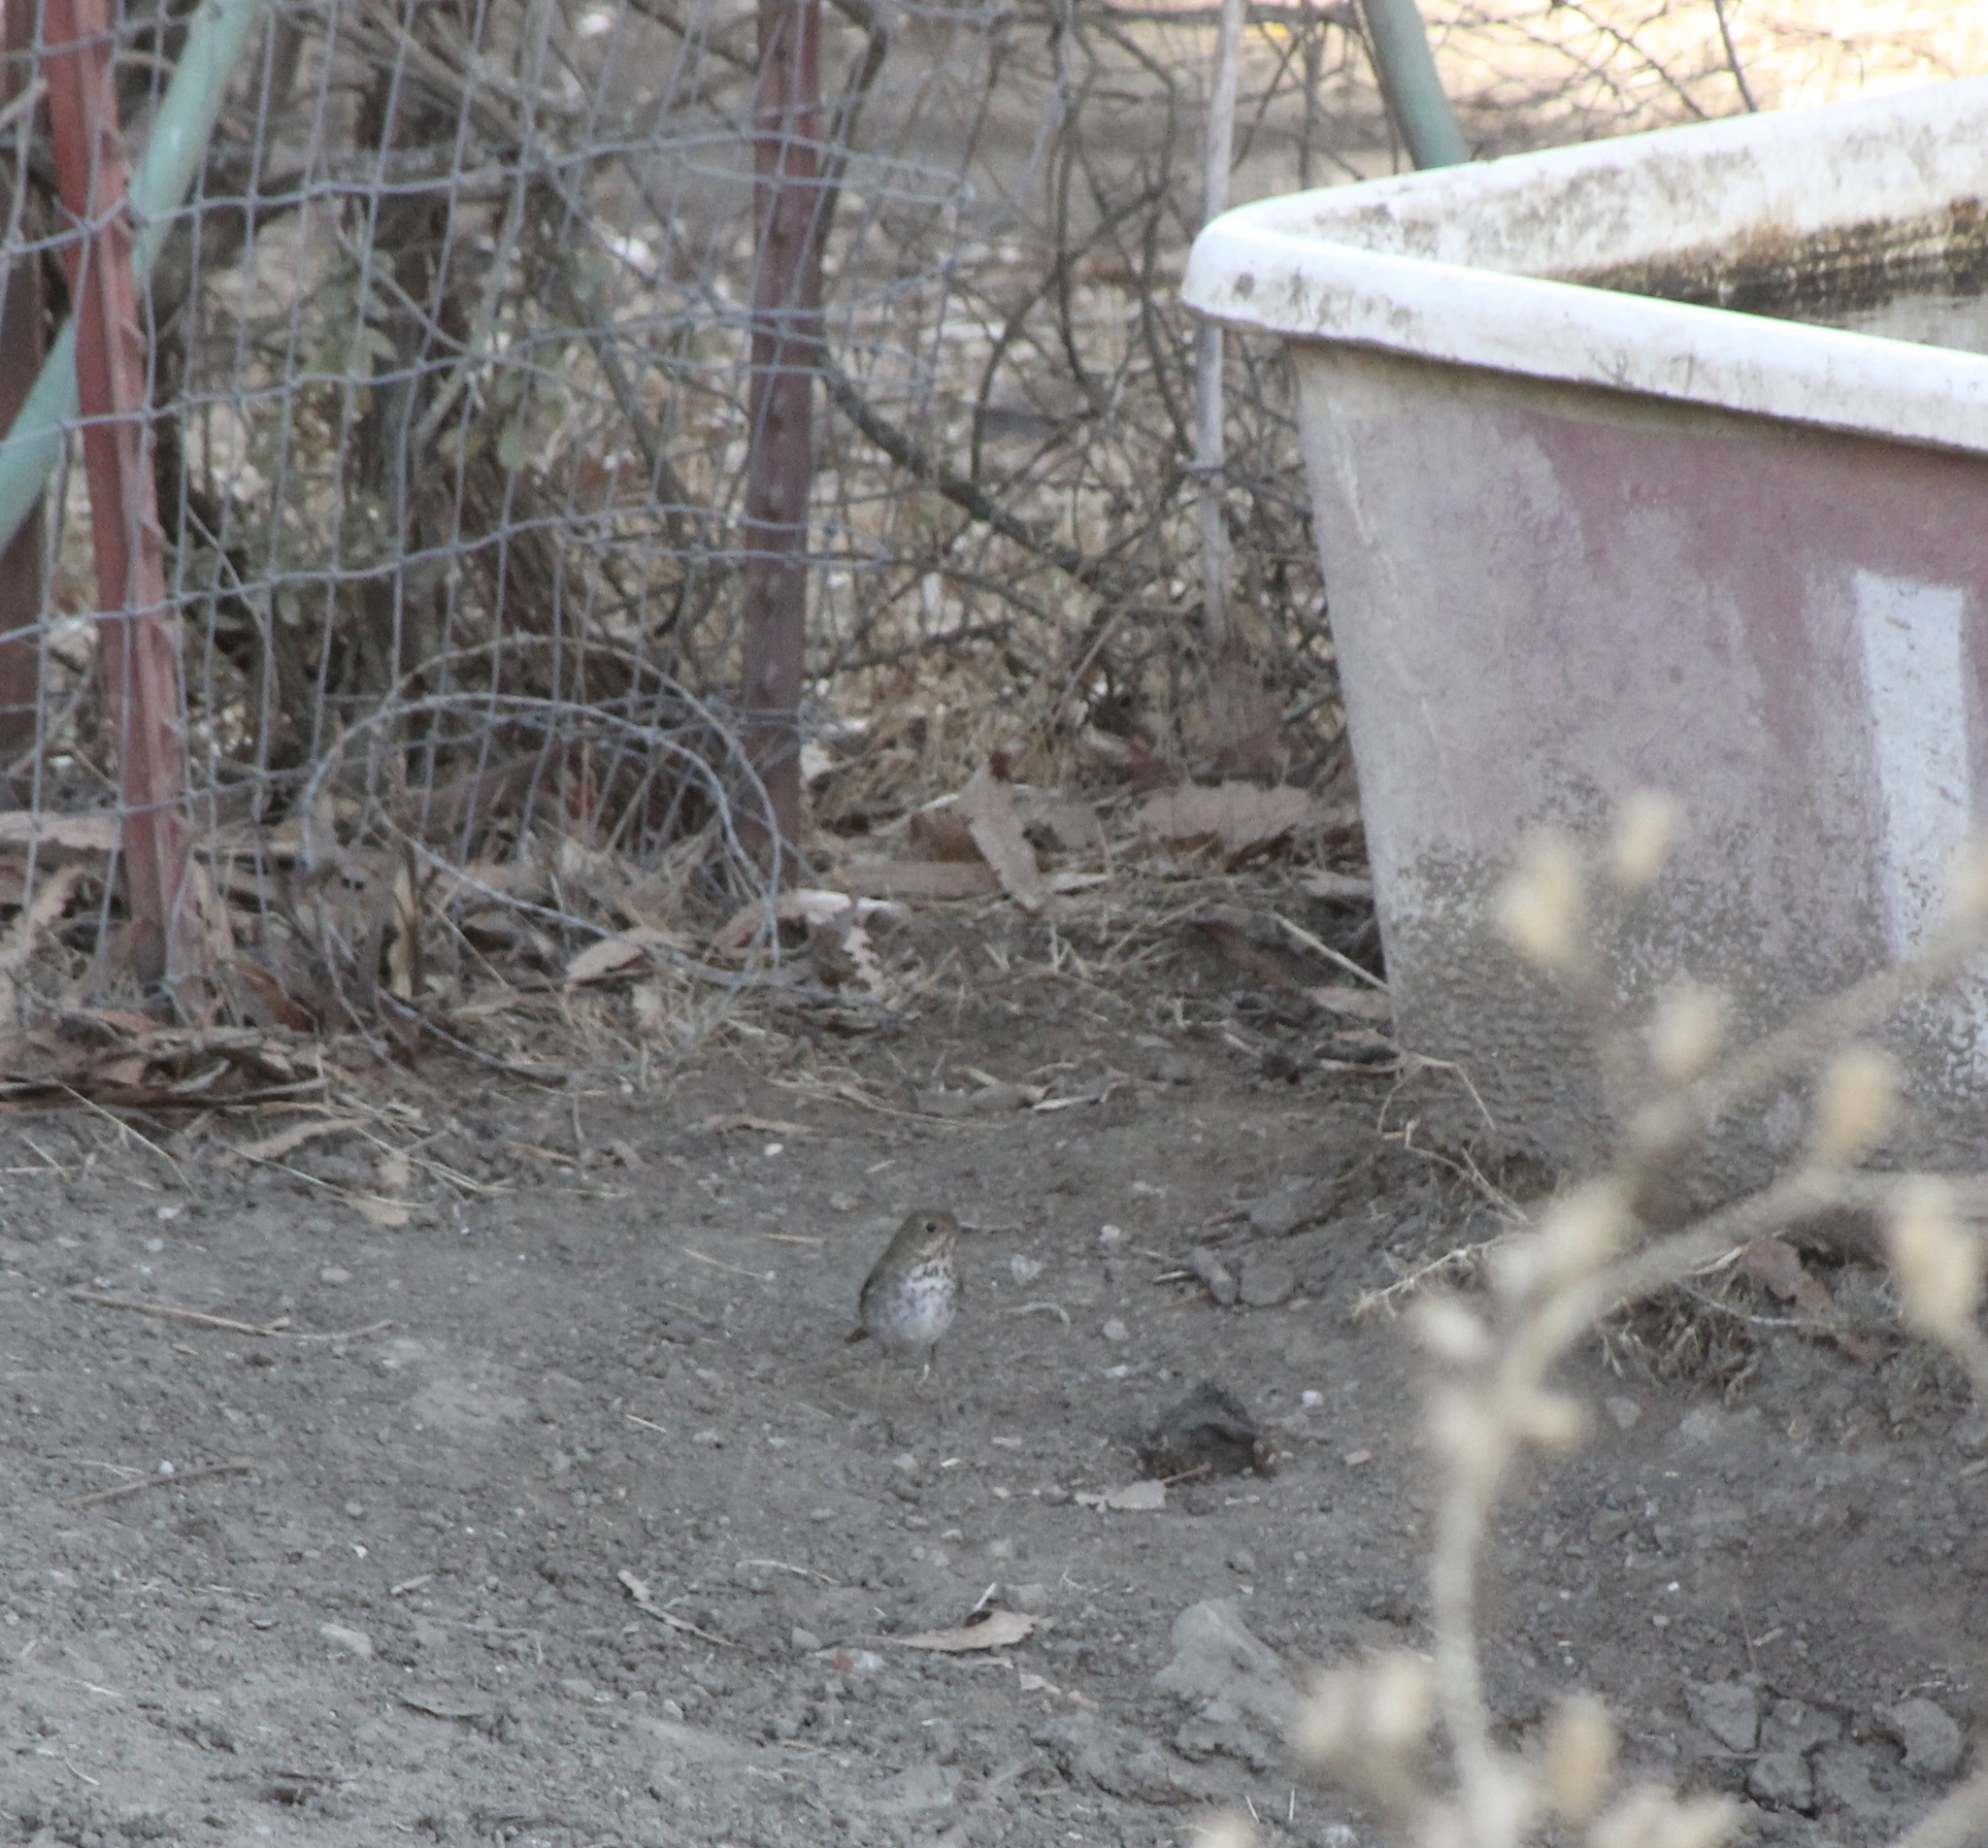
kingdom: Animalia
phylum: Chordata
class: Aves
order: Passeriformes
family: Turdidae
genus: Catharus
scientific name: Catharus guttatus
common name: Hermit thrush
